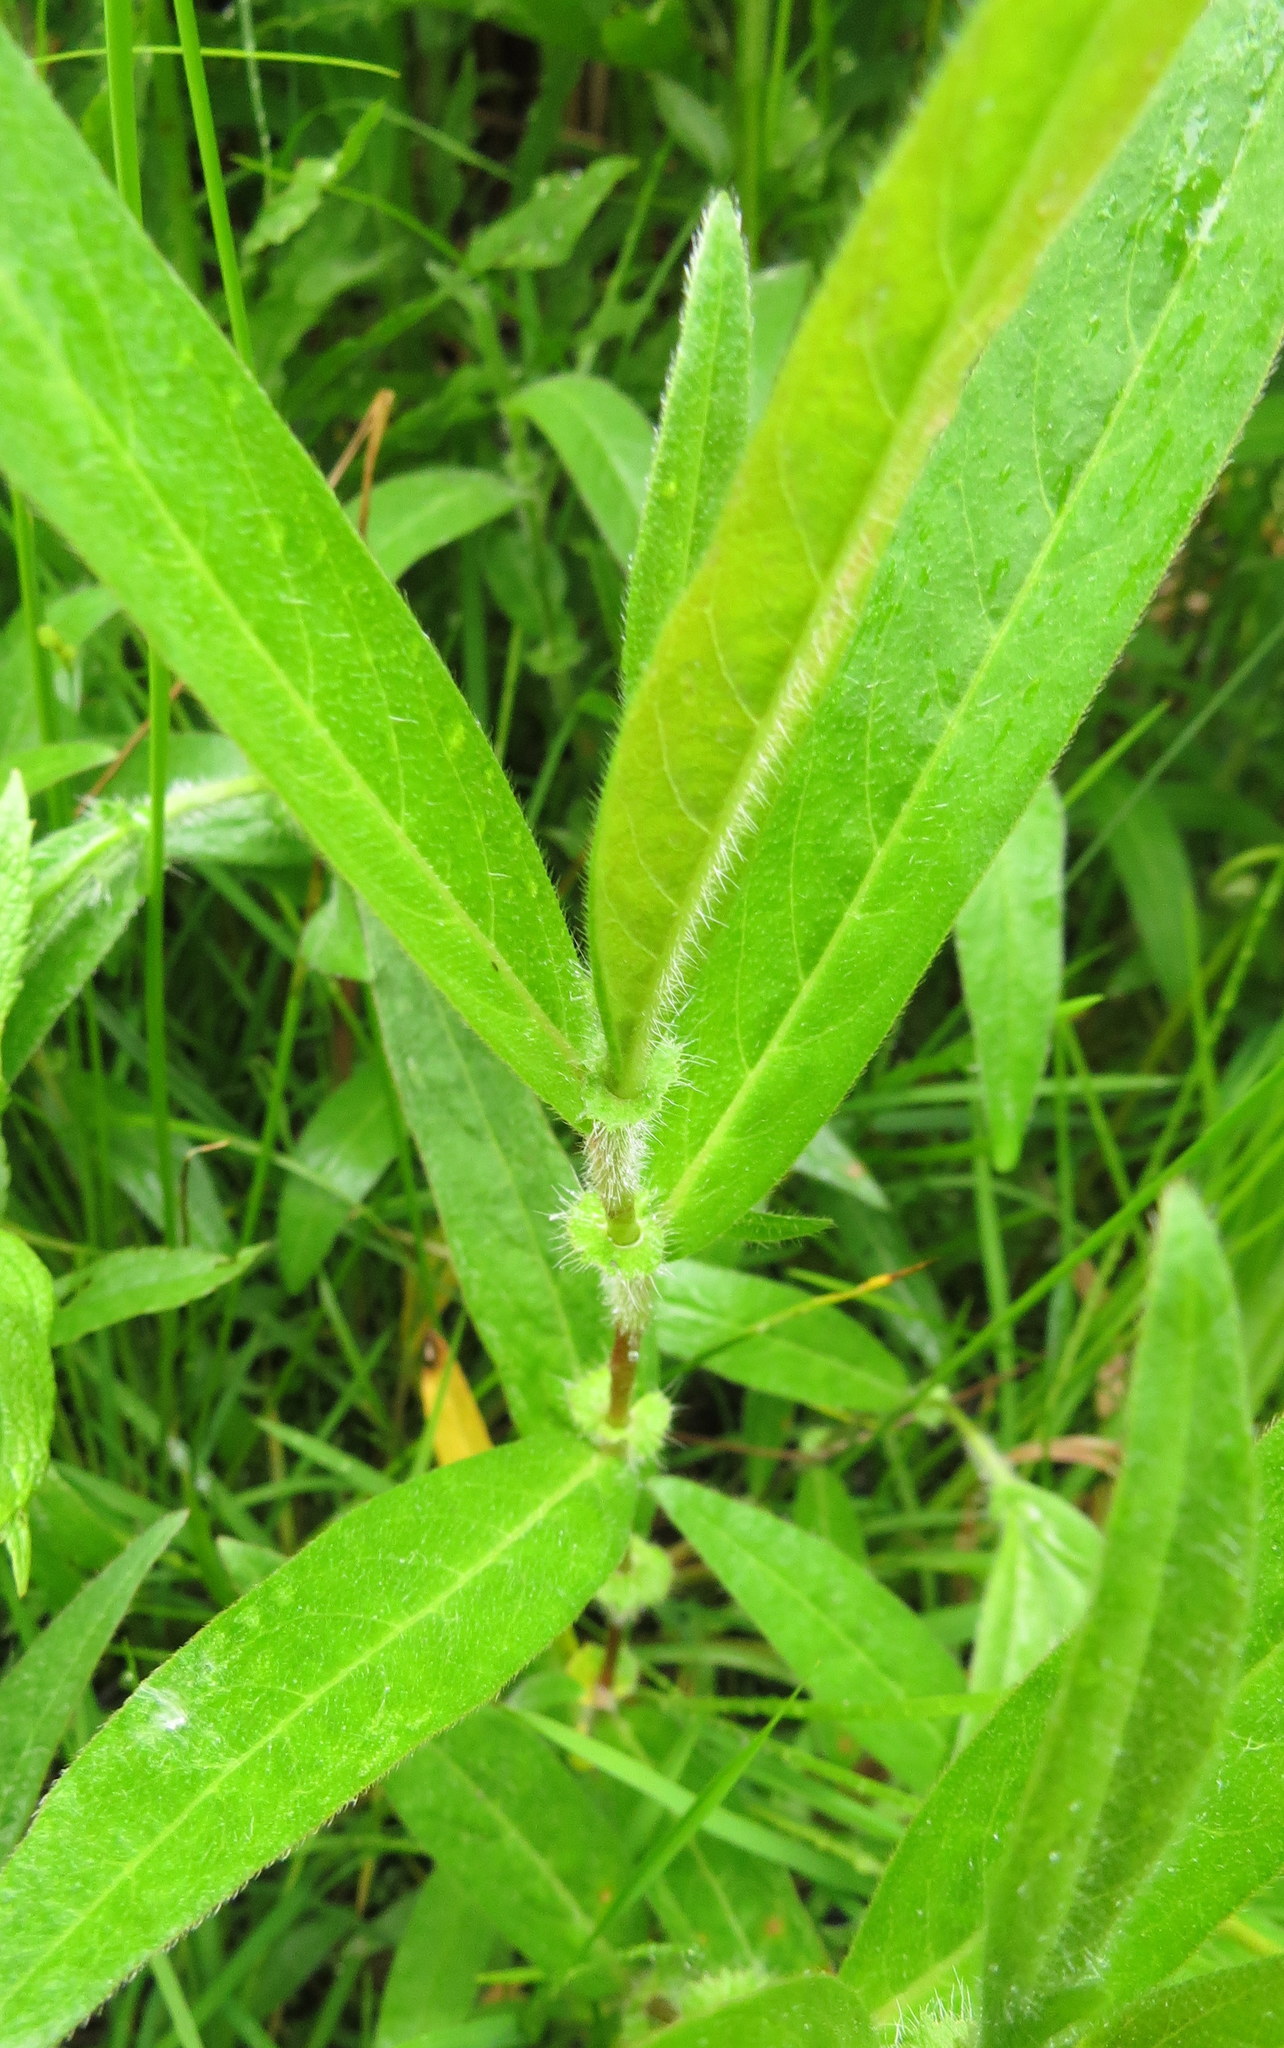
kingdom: Plantae
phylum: Tracheophyta
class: Magnoliopsida
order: Caryophyllales
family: Polygonaceae
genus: Persicaria
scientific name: Persicaria amphibia
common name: Amphibious bistort
